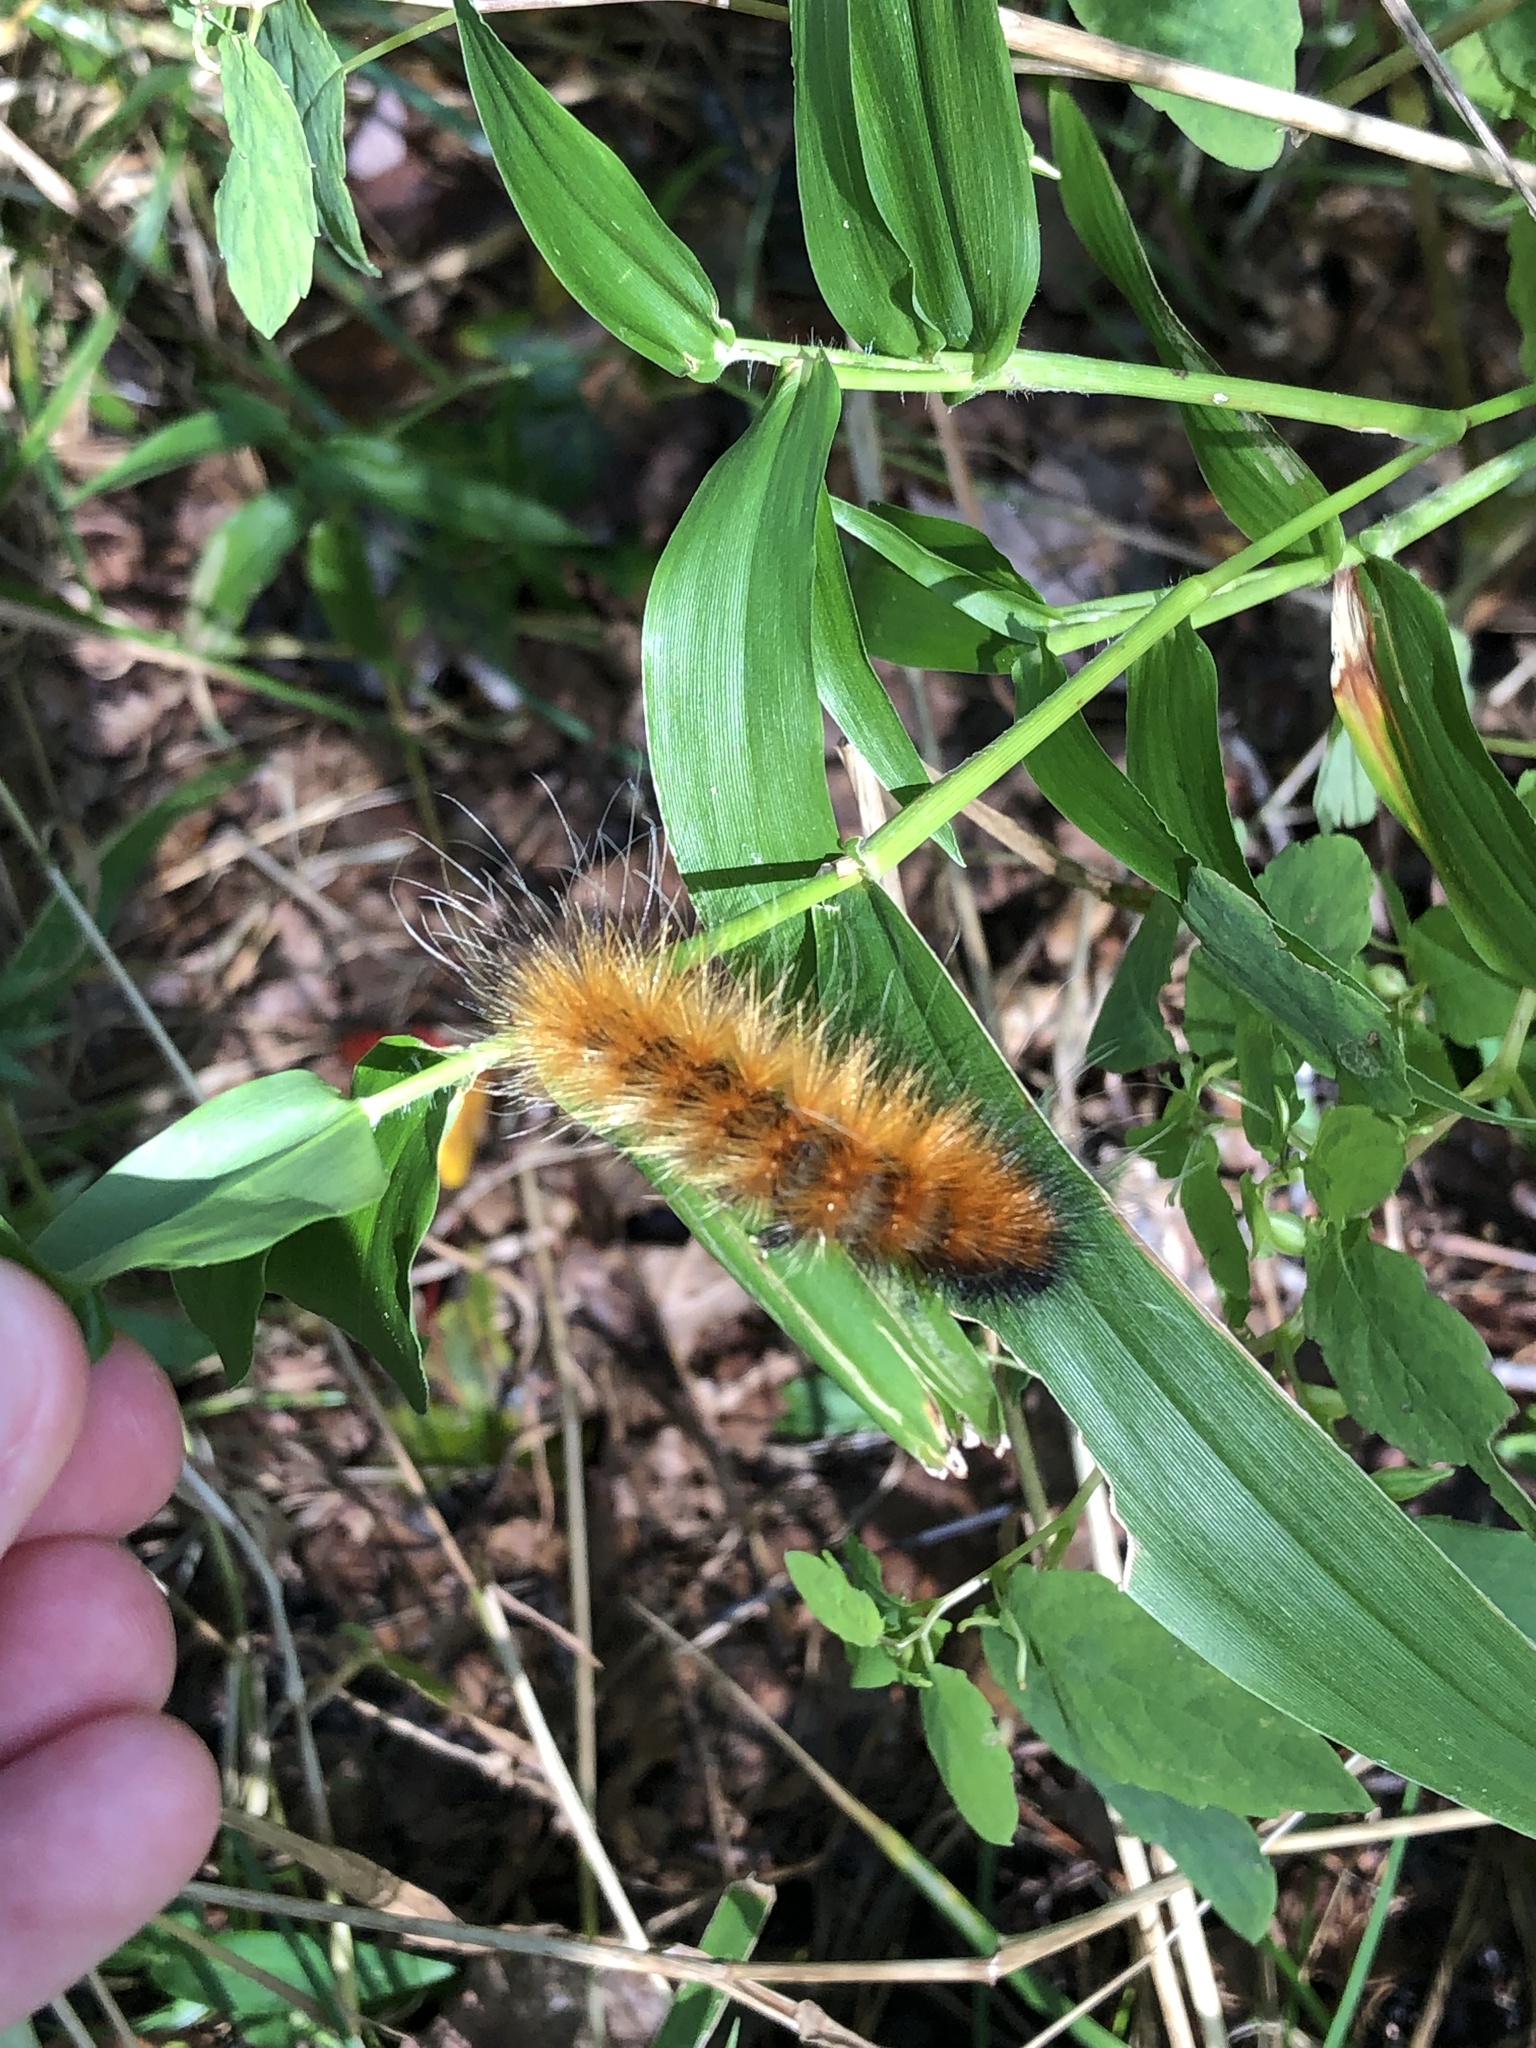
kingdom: Animalia
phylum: Arthropoda
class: Insecta
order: Lepidoptera
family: Erebidae
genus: Spilosoma
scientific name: Spilosoma virginica
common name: Virginia tiger moth
